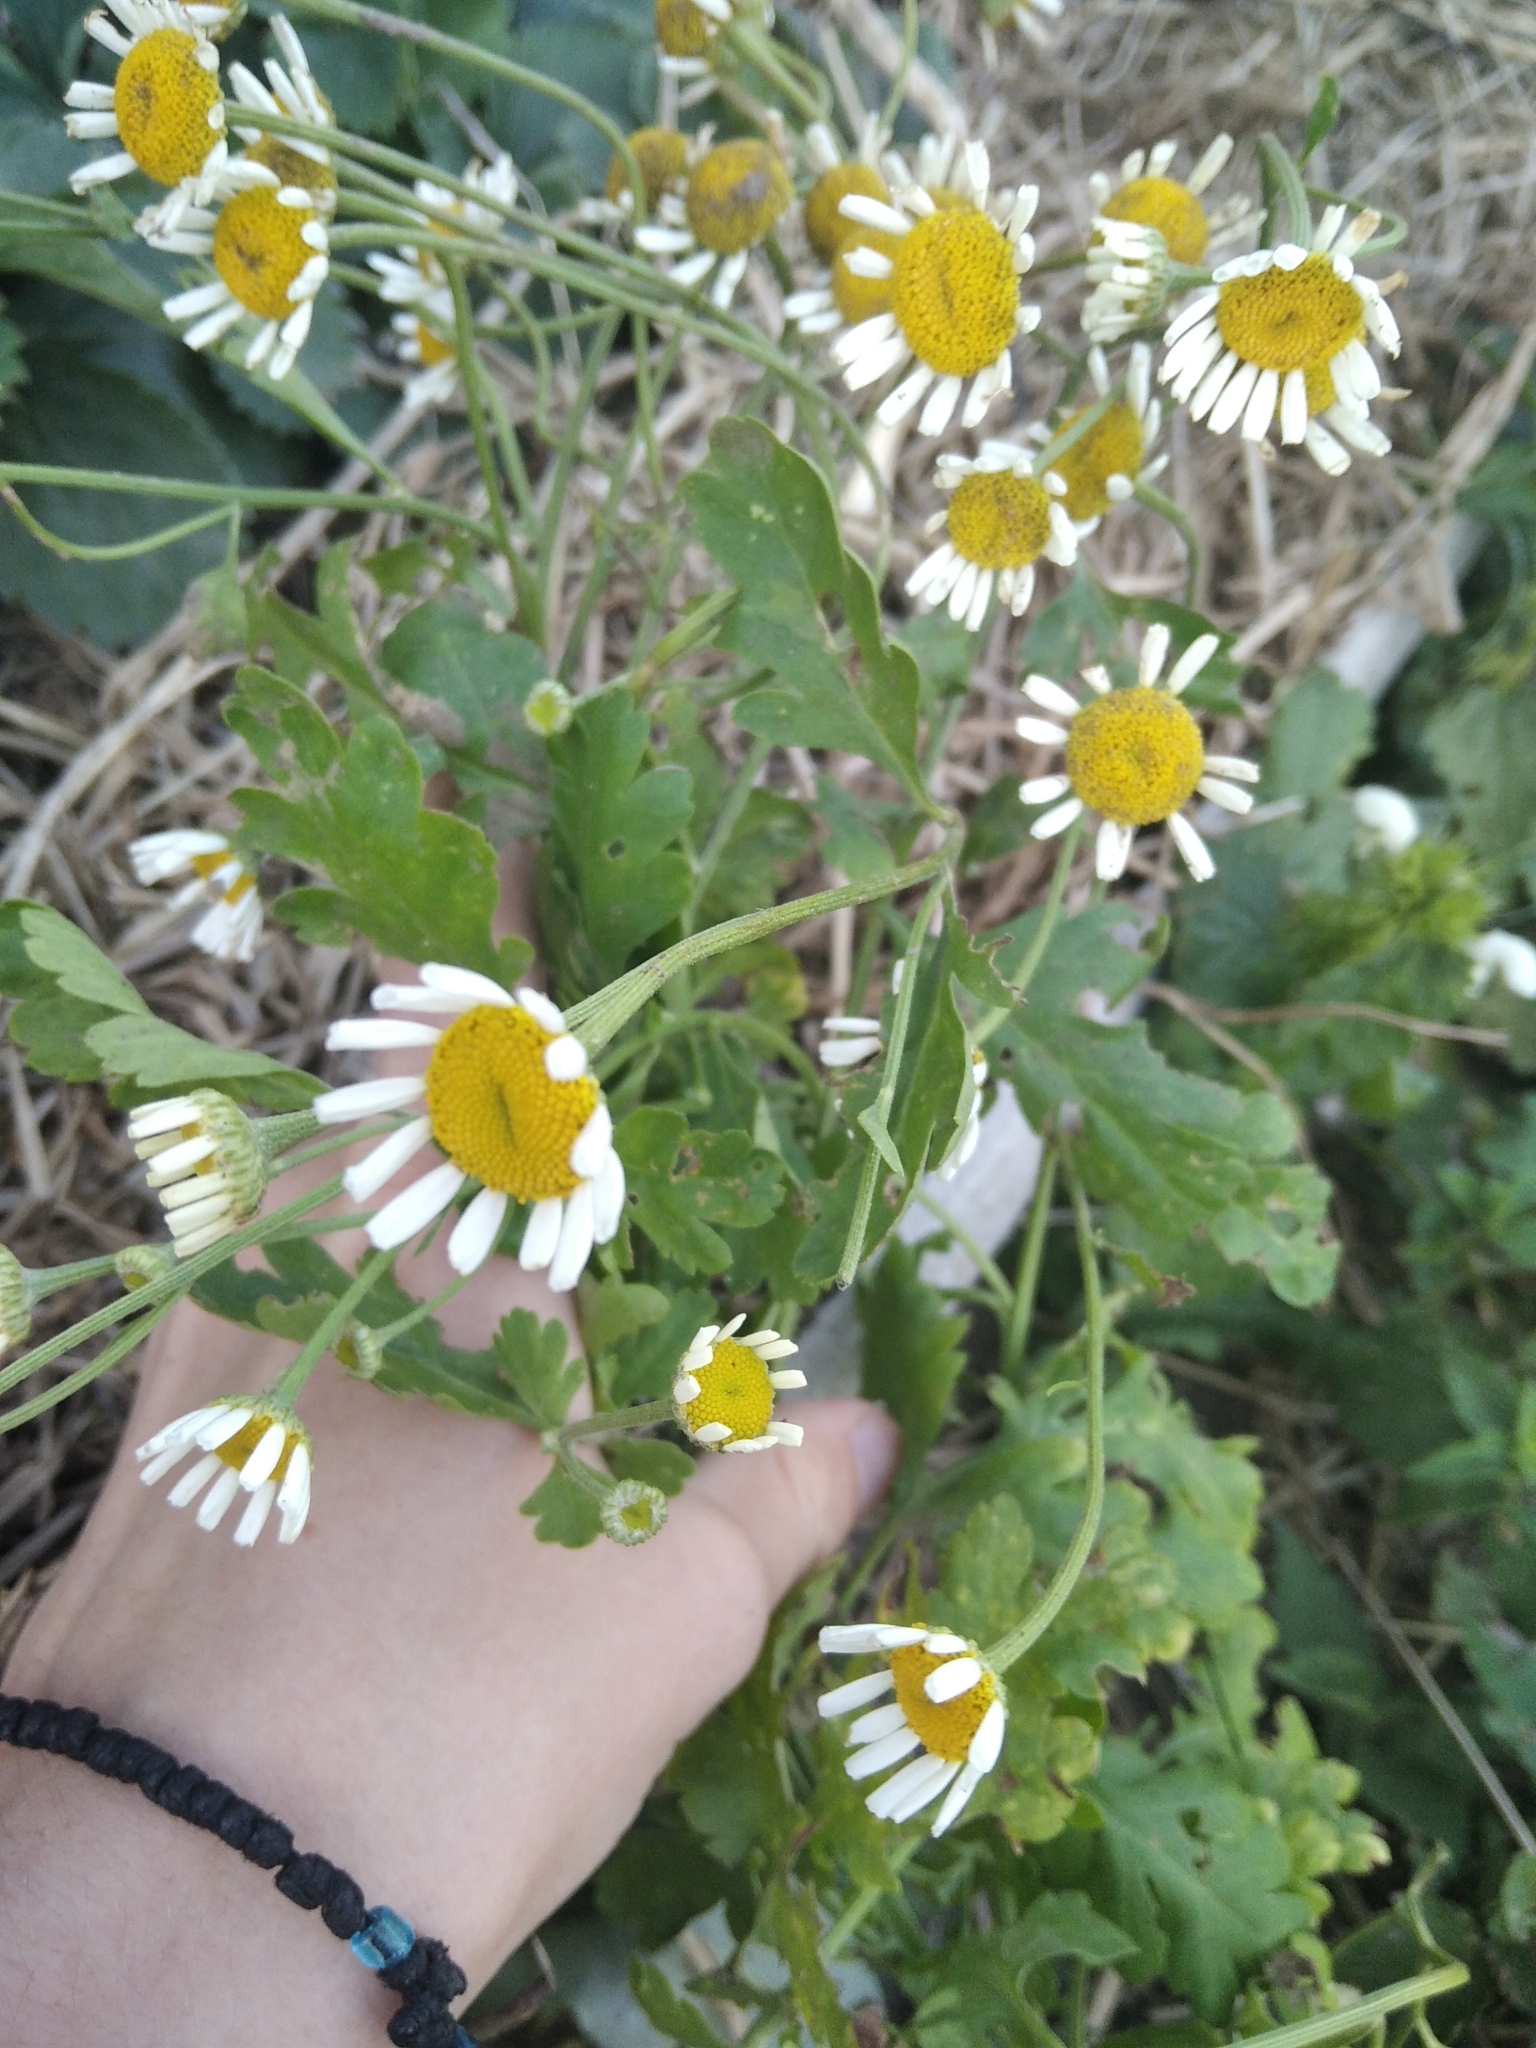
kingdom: Plantae
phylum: Tracheophyta
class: Magnoliopsida
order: Asterales
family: Asteraceae
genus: Tanacetum
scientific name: Tanacetum parthenium
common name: Feverfew
